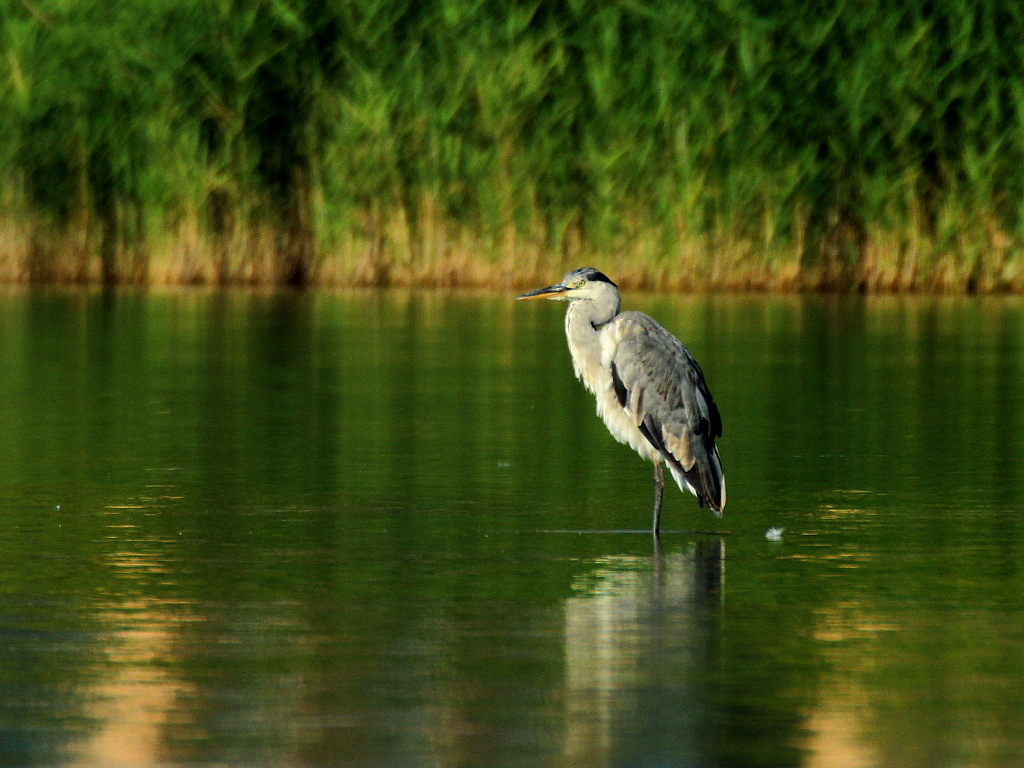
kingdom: Animalia
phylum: Chordata
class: Aves
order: Pelecaniformes
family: Ardeidae
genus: Ardea
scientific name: Ardea cinerea
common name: Grey heron
